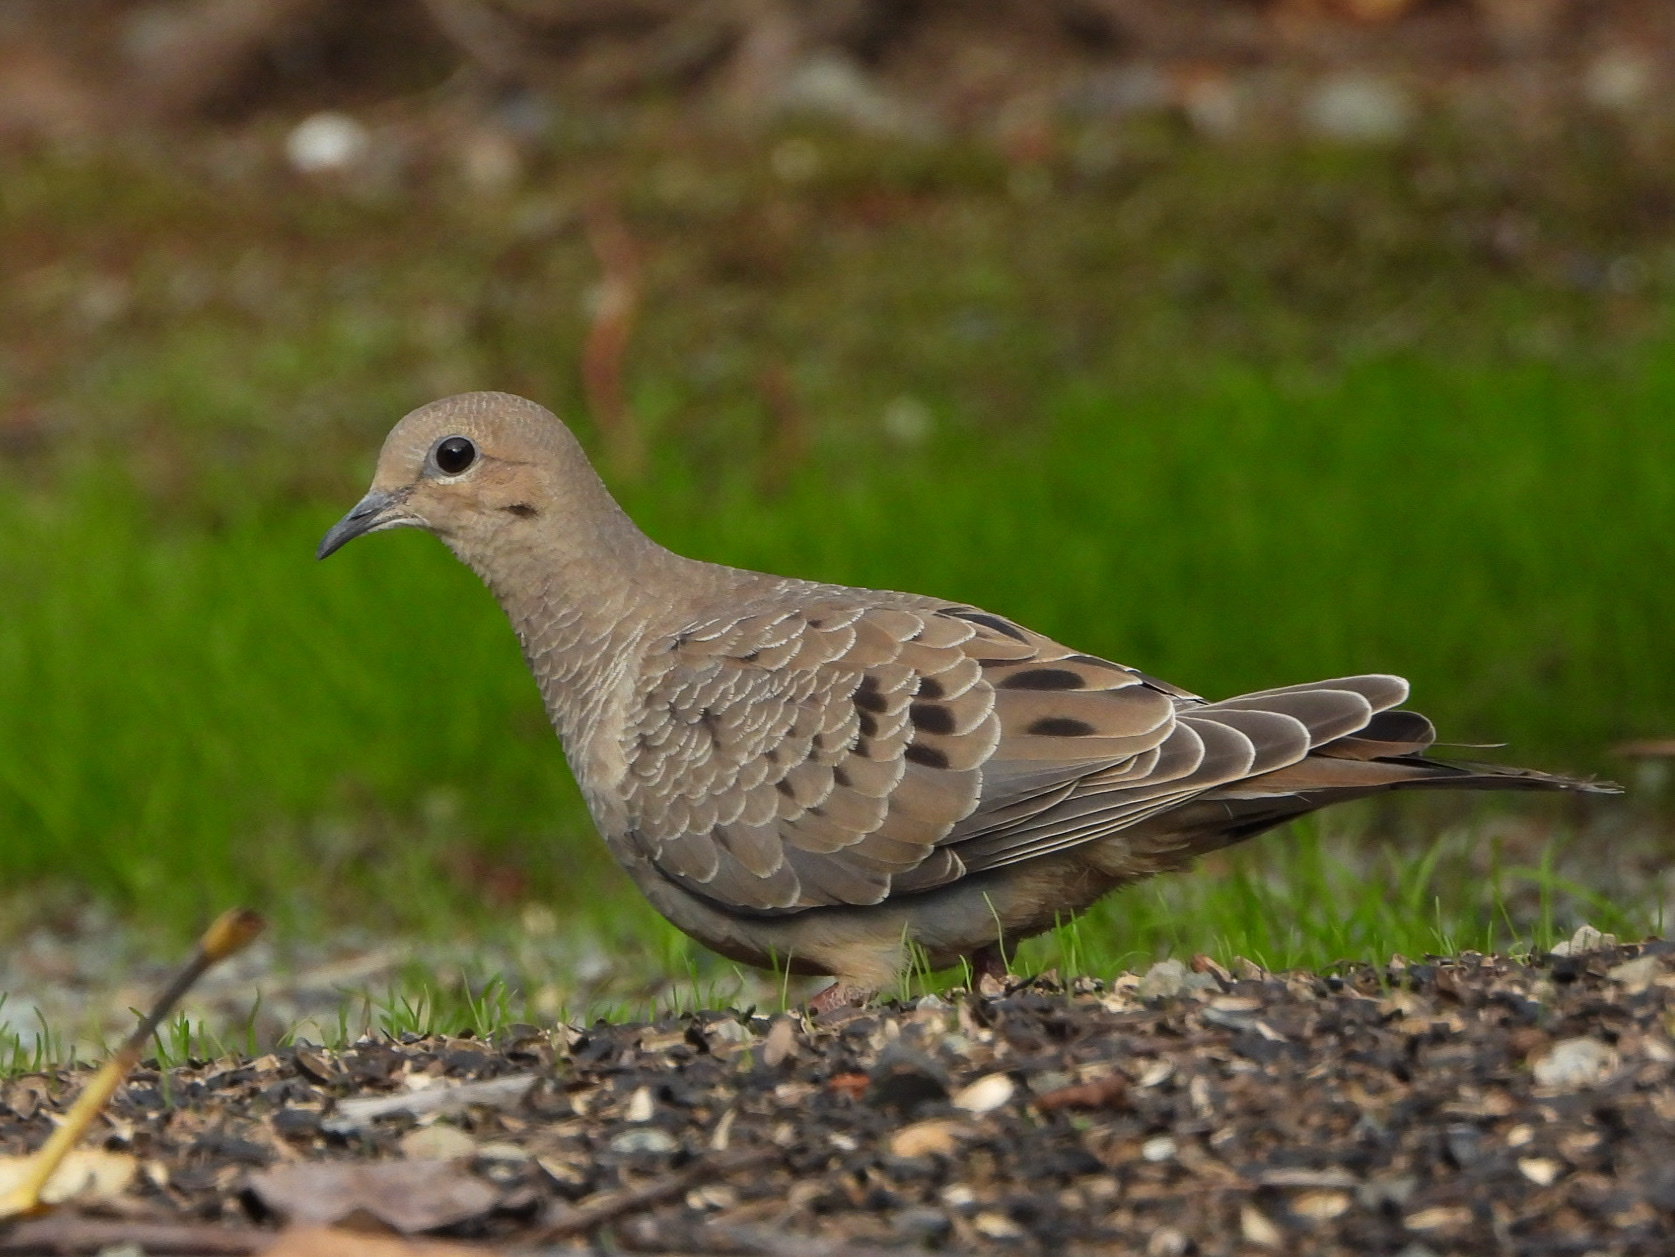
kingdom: Animalia
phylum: Chordata
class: Aves
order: Columbiformes
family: Columbidae
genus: Zenaida
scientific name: Zenaida macroura
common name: Mourning dove
